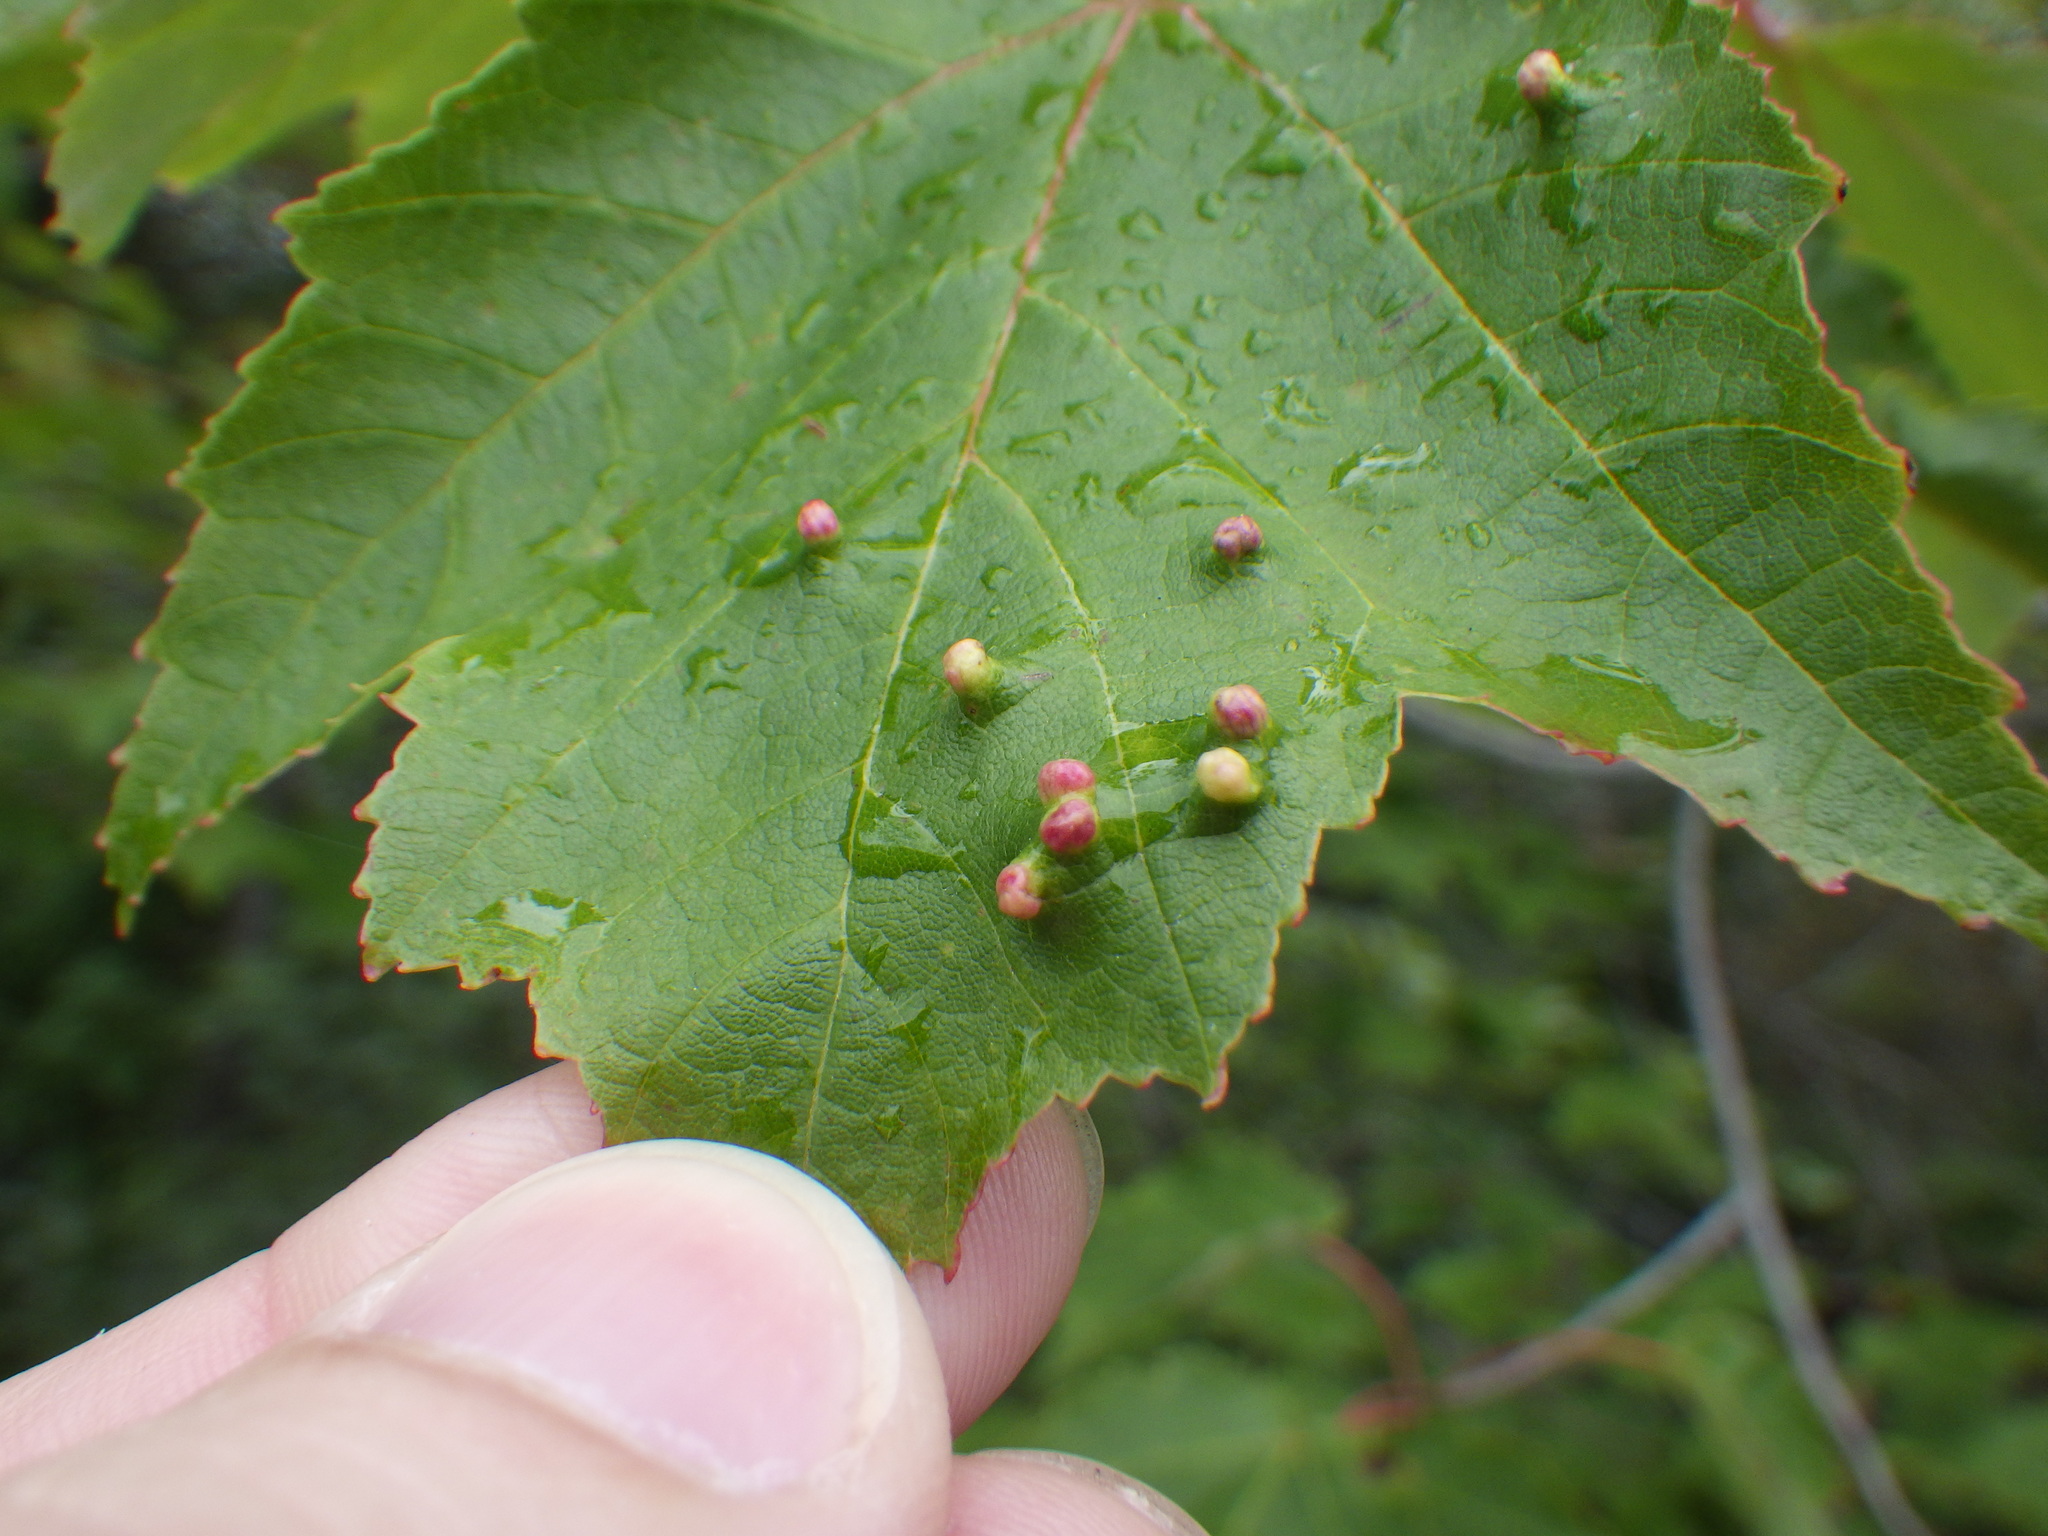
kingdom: Animalia
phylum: Arthropoda
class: Arachnida
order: Trombidiformes
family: Eriophyidae
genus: Vasates
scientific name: Vasates quadripedes
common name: Maple bladder gall mite
